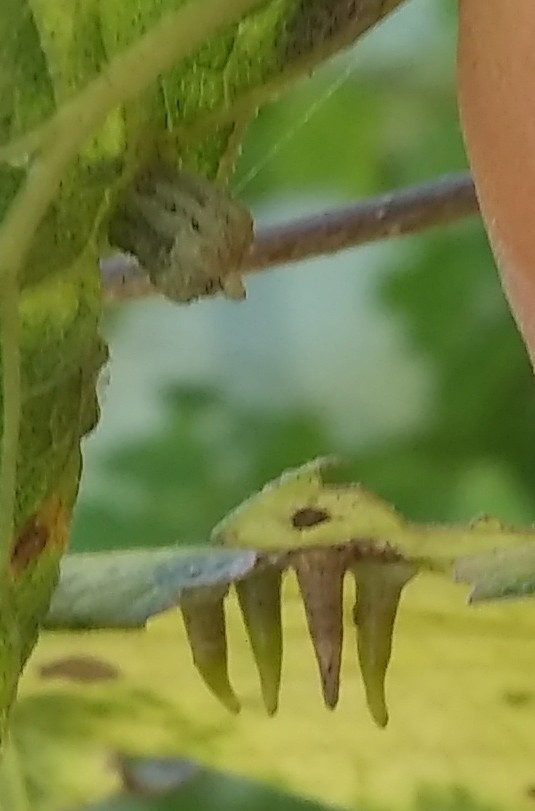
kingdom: Animalia
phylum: Arthropoda
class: Insecta
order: Diptera
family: Cecidomyiidae
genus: Celticecis
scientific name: Celticecis subulata
